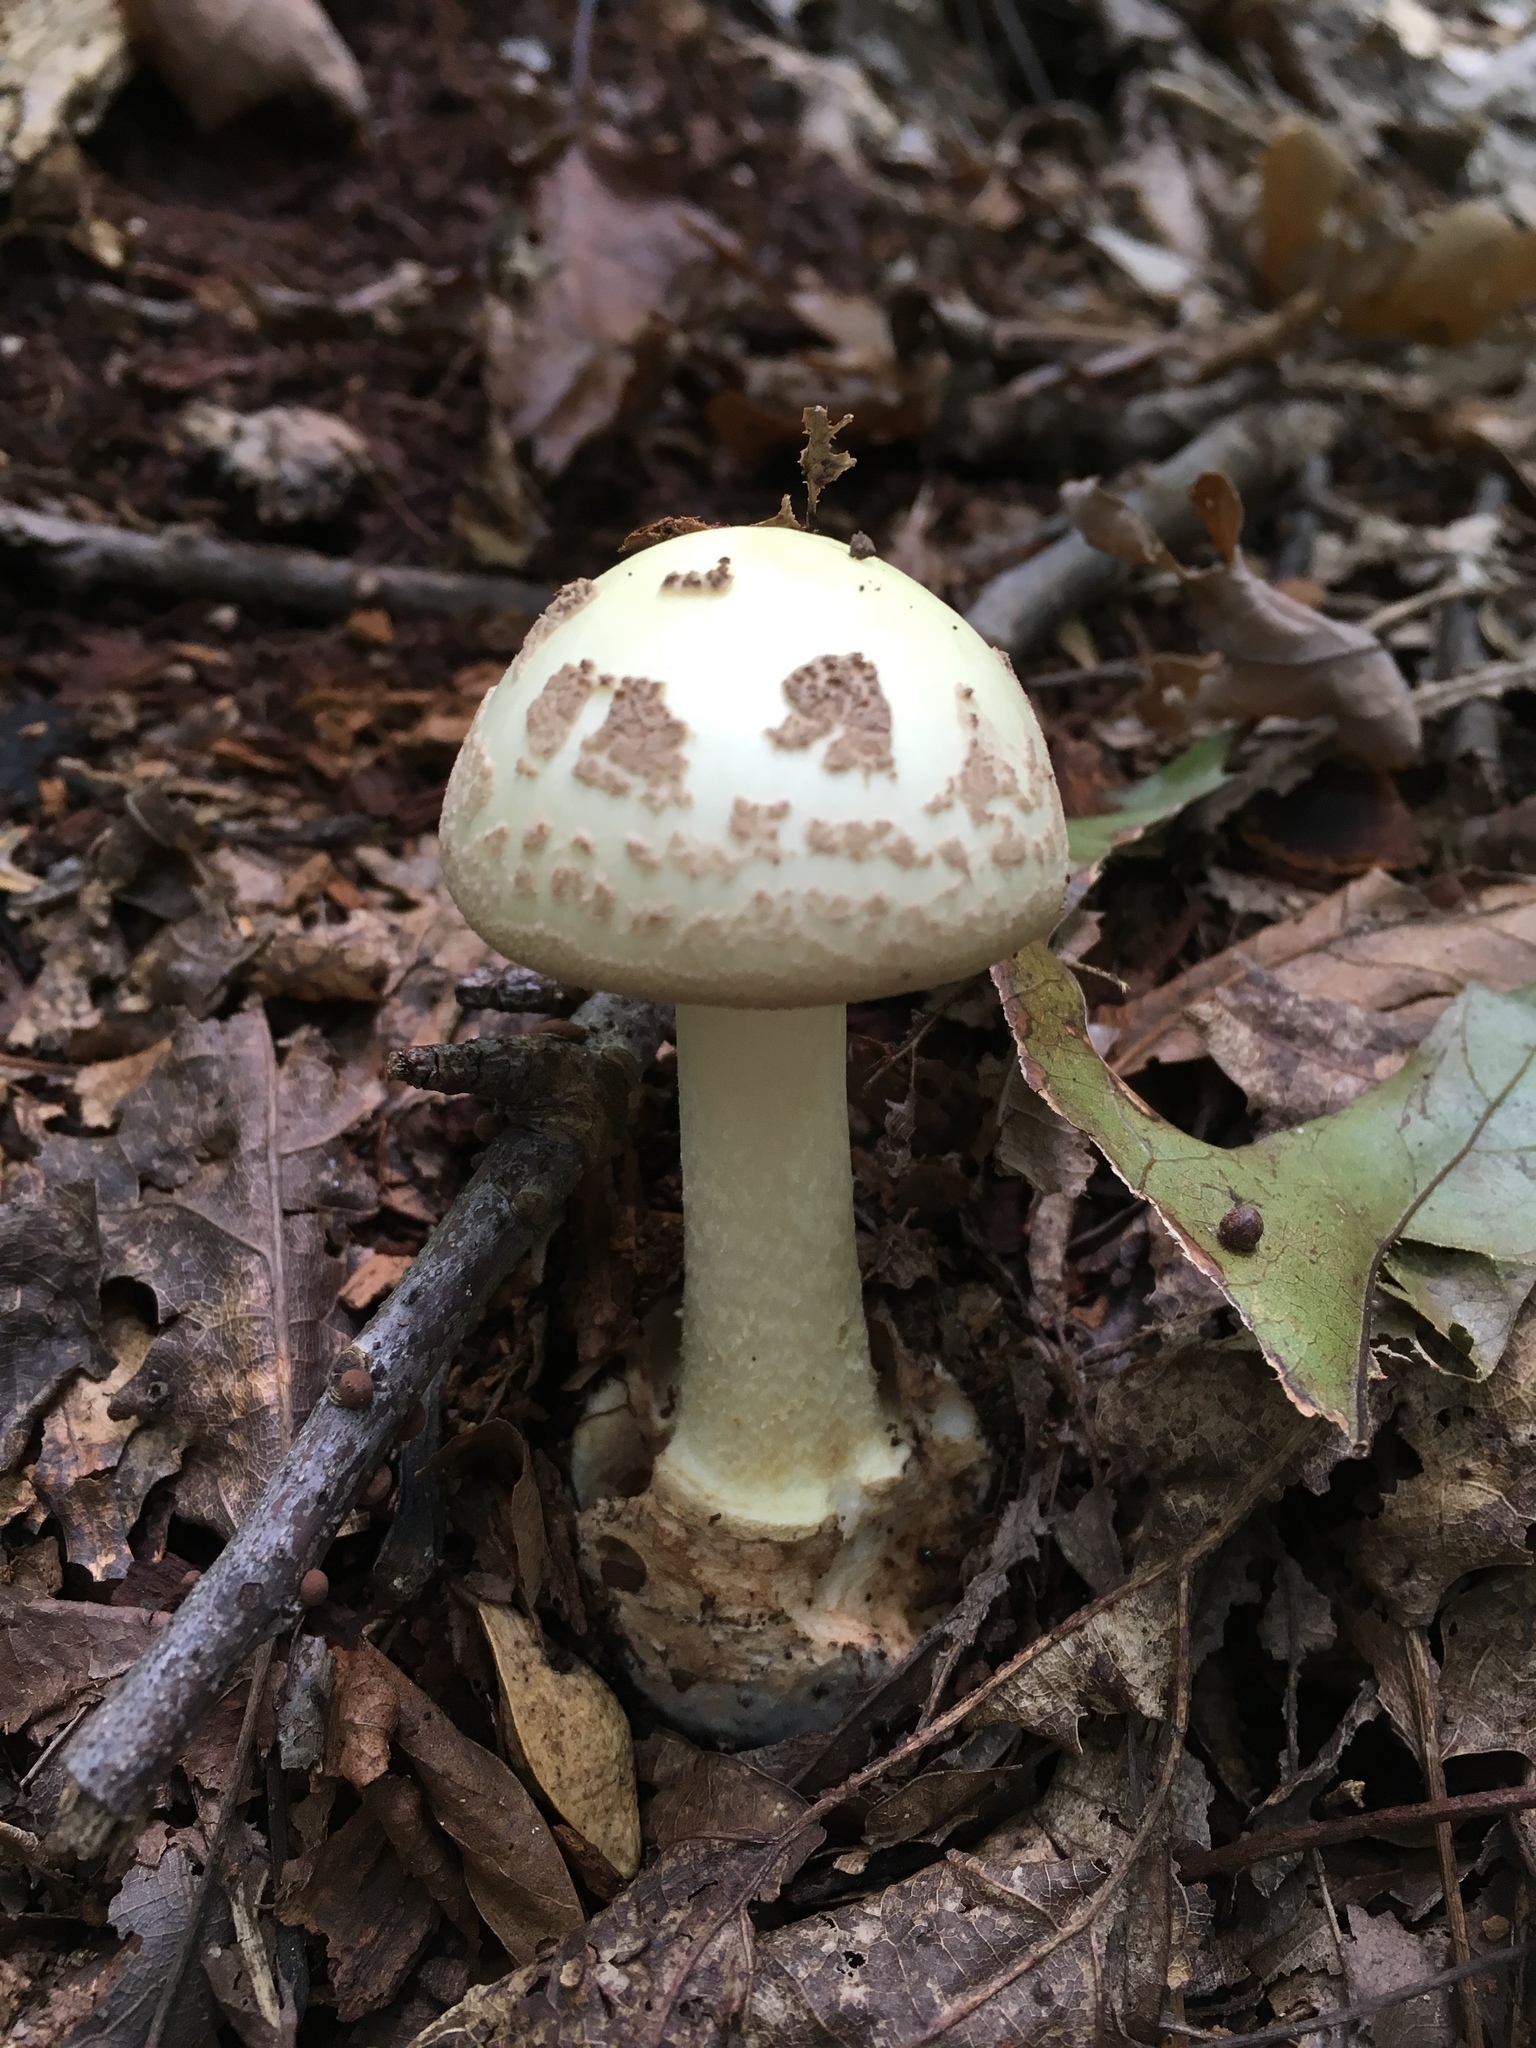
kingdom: Fungi
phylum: Basidiomycota
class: Agaricomycetes
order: Agaricales
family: Amanitaceae
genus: Amanita
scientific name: Amanita citrina
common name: False death-cap
